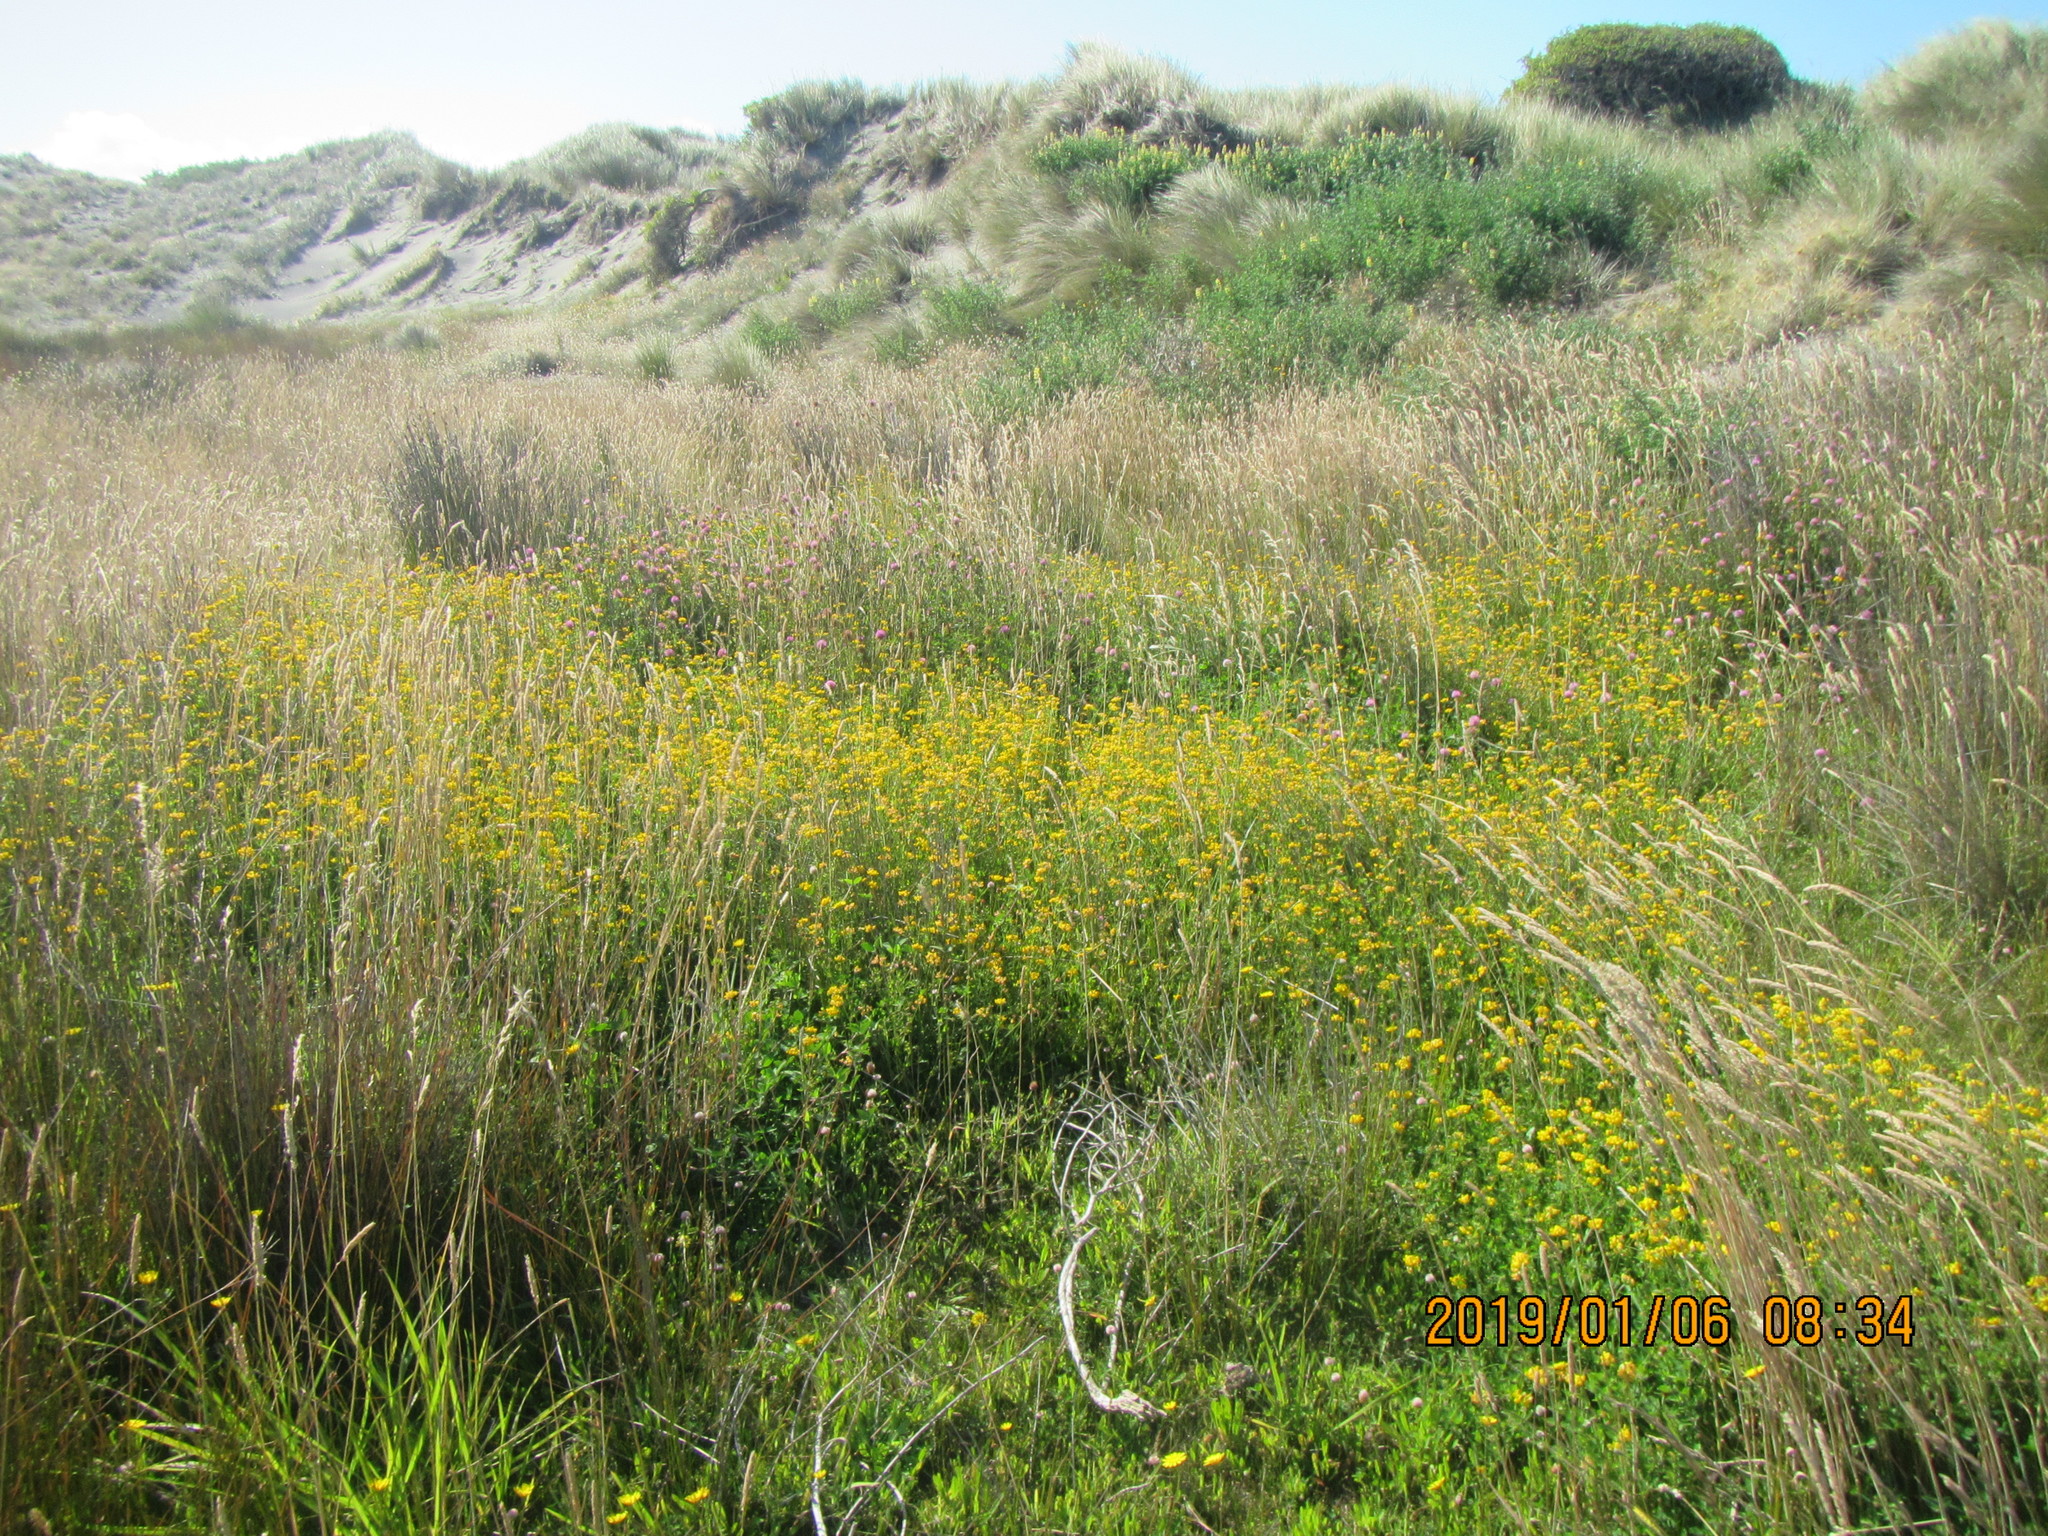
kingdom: Plantae
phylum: Tracheophyta
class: Magnoliopsida
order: Fabales
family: Fabaceae
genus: Lotus
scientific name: Lotus pedunculatus
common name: Greater birdsfoot-trefoil
